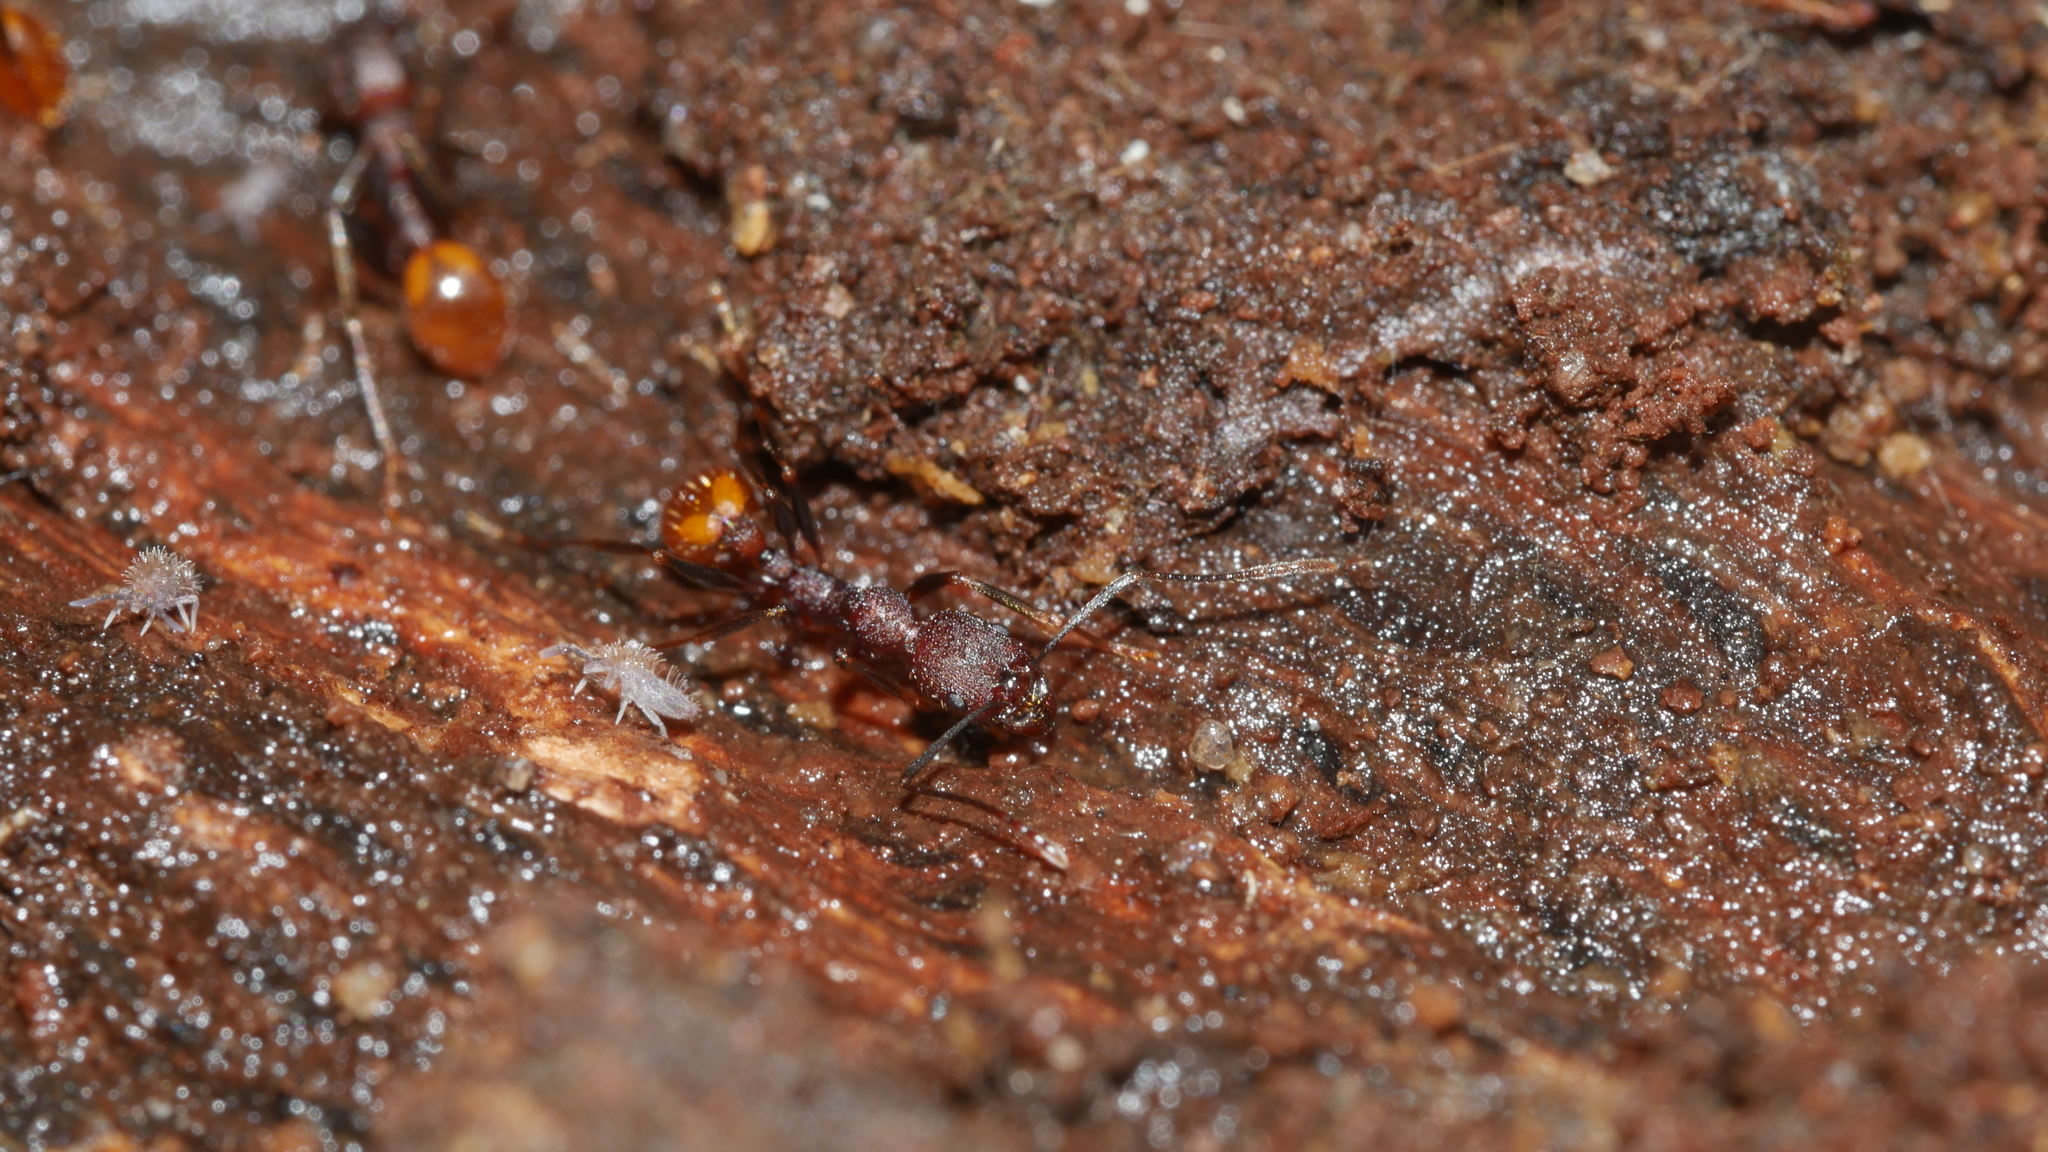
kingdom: Animalia
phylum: Arthropoda
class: Insecta
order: Hymenoptera
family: Formicidae
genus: Aphaenogaster
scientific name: Aphaenogaster lamellidens
